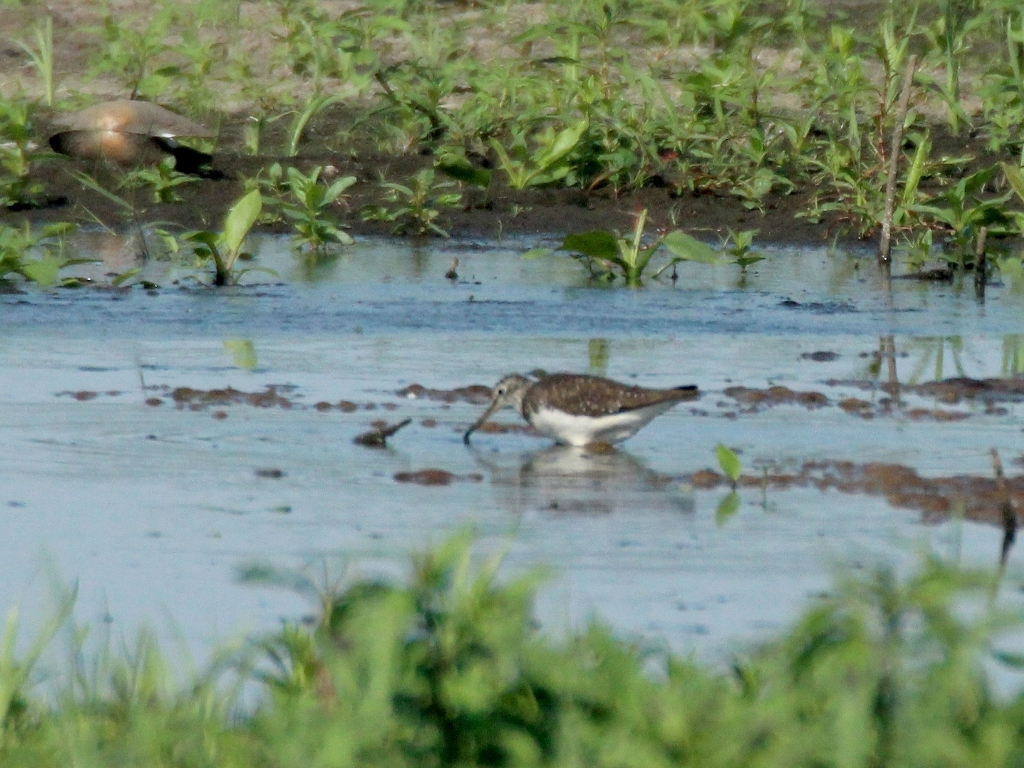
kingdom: Animalia
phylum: Chordata
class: Aves
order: Charadriiformes
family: Scolopacidae
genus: Tringa
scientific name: Tringa ochropus
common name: Green sandpiper
